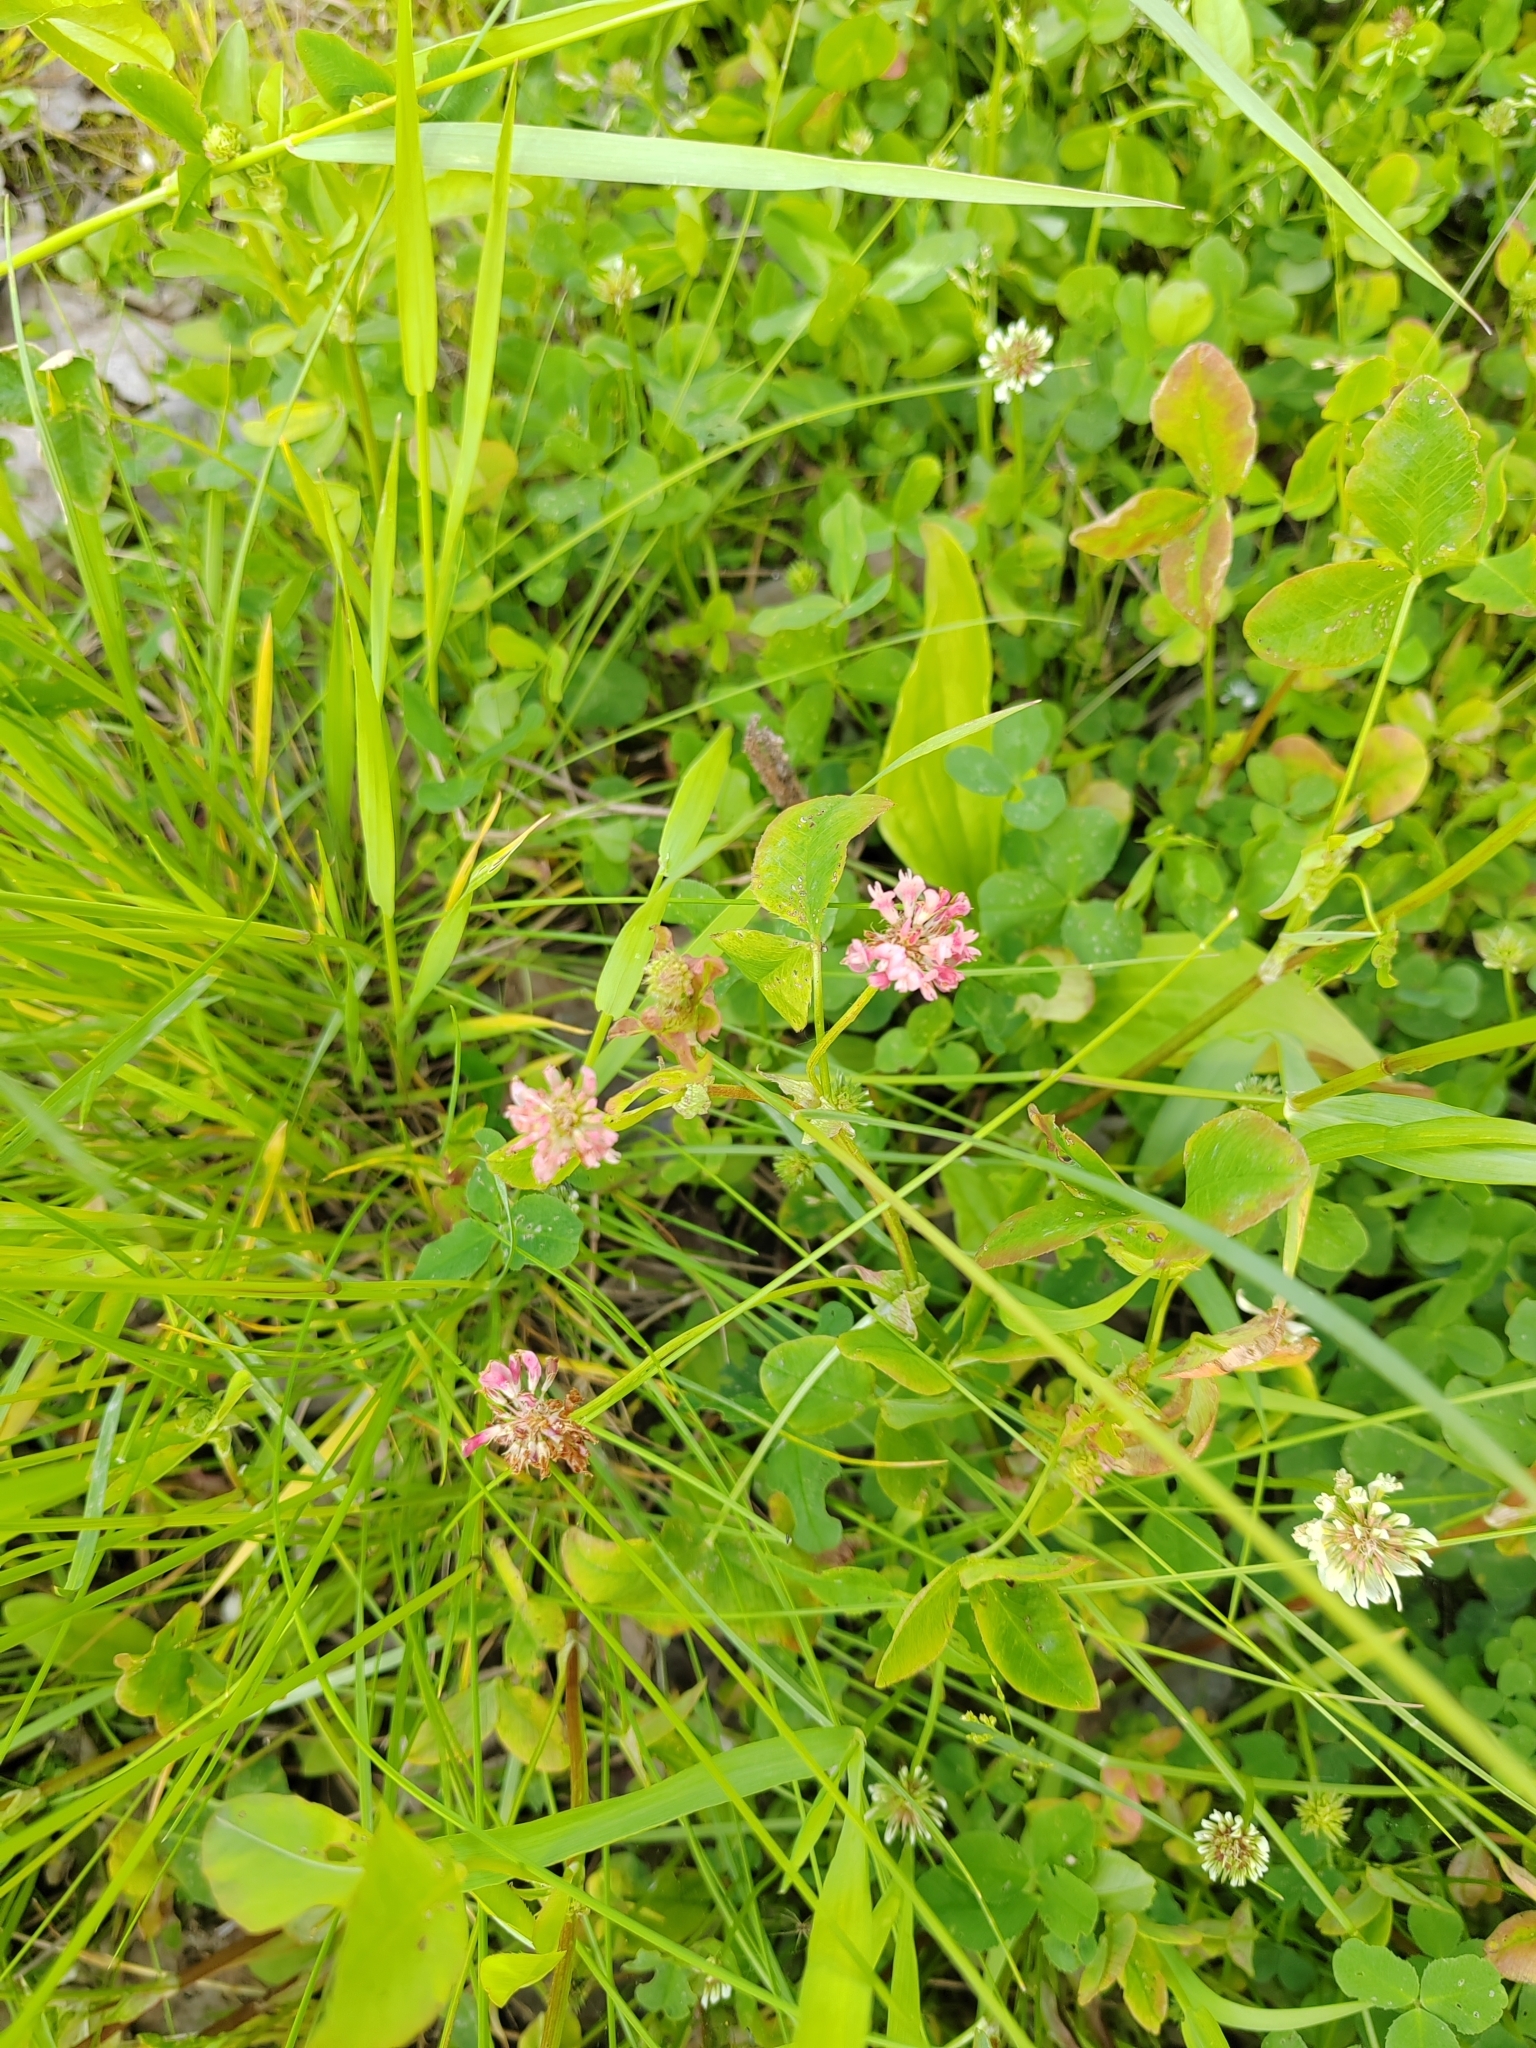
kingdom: Plantae
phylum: Tracheophyta
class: Magnoliopsida
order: Fabales
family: Fabaceae
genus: Trifolium
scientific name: Trifolium hybridum
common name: Alsike clover
